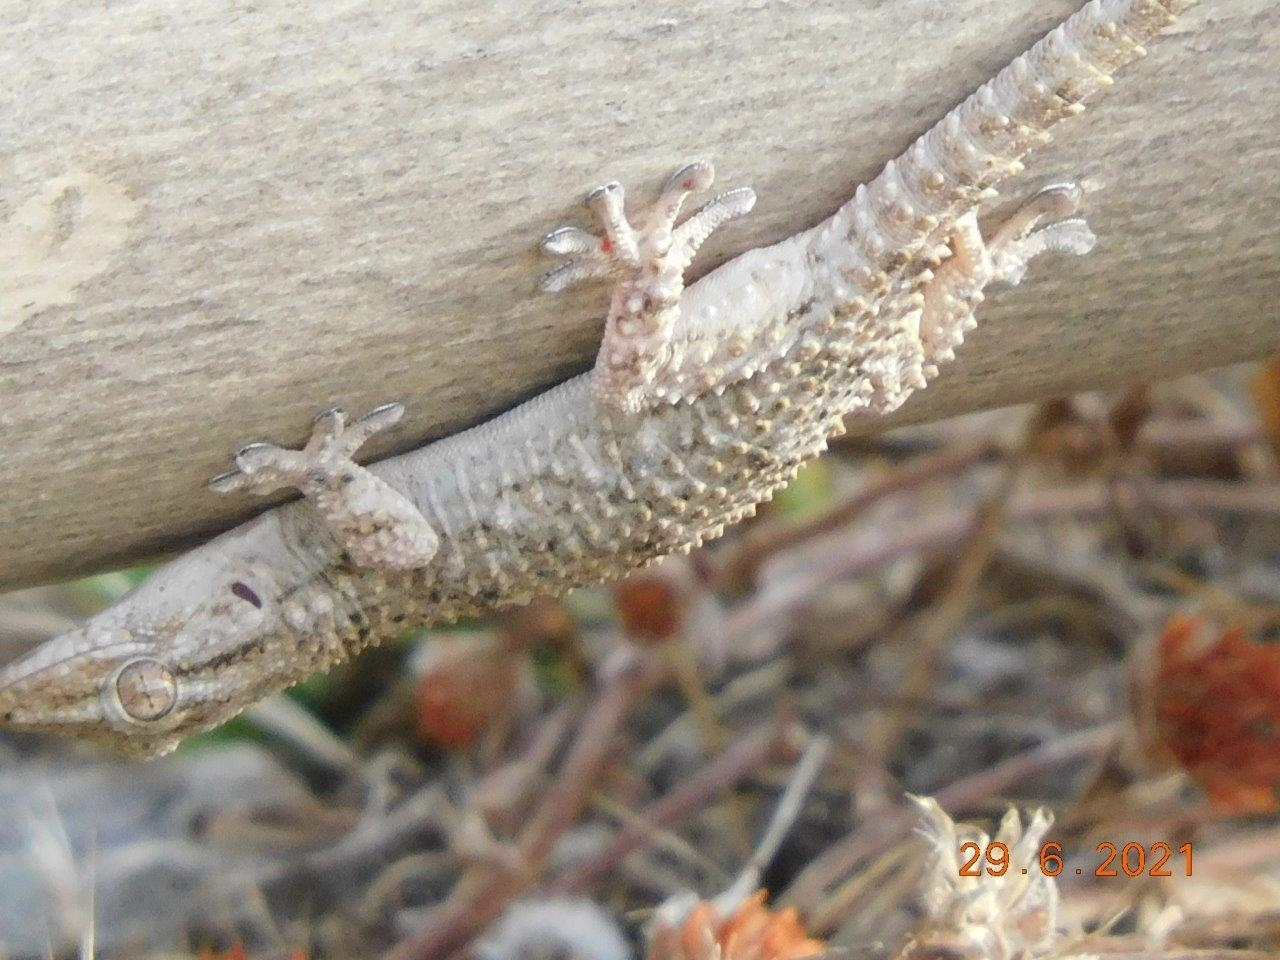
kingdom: Animalia
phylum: Chordata
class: Squamata
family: Phyllodactylidae
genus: Tarentola
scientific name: Tarentola mauritanica
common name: Moorish gecko
